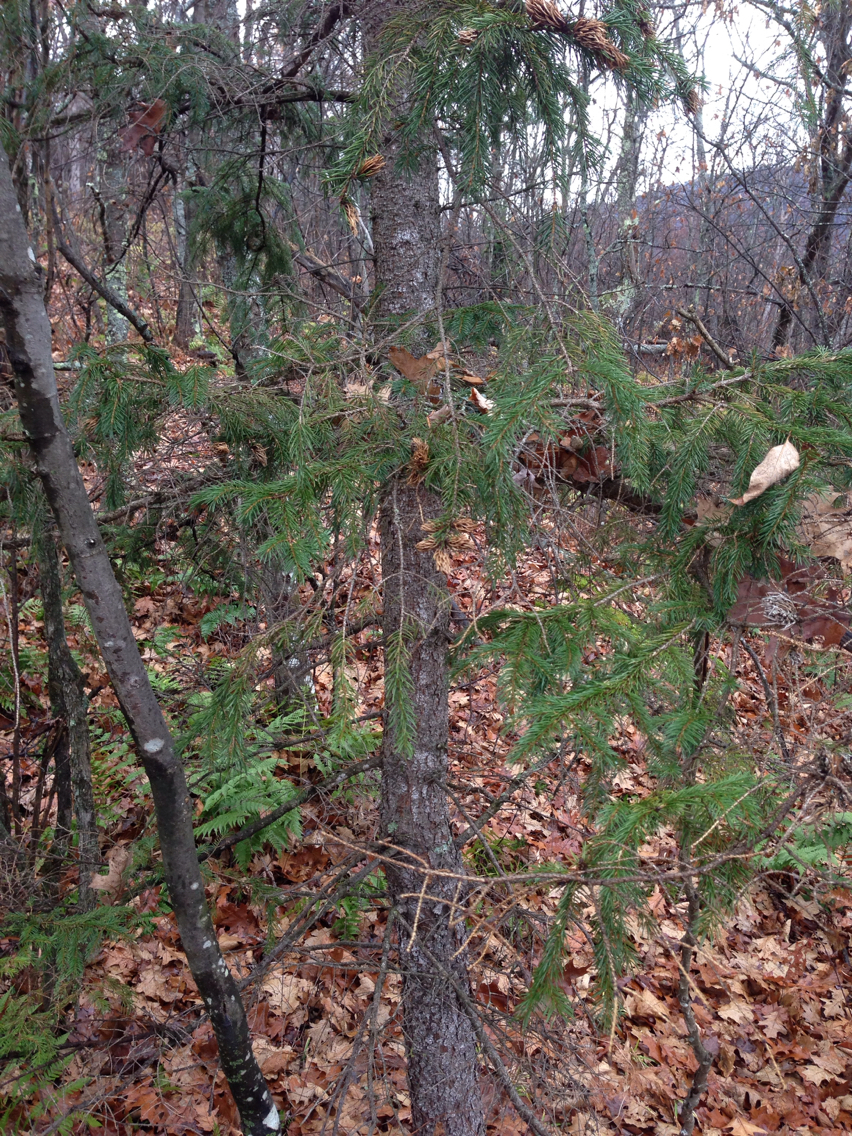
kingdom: Plantae
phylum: Tracheophyta
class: Pinopsida
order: Pinales
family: Pinaceae
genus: Picea
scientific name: Picea rubens
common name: Red spruce
